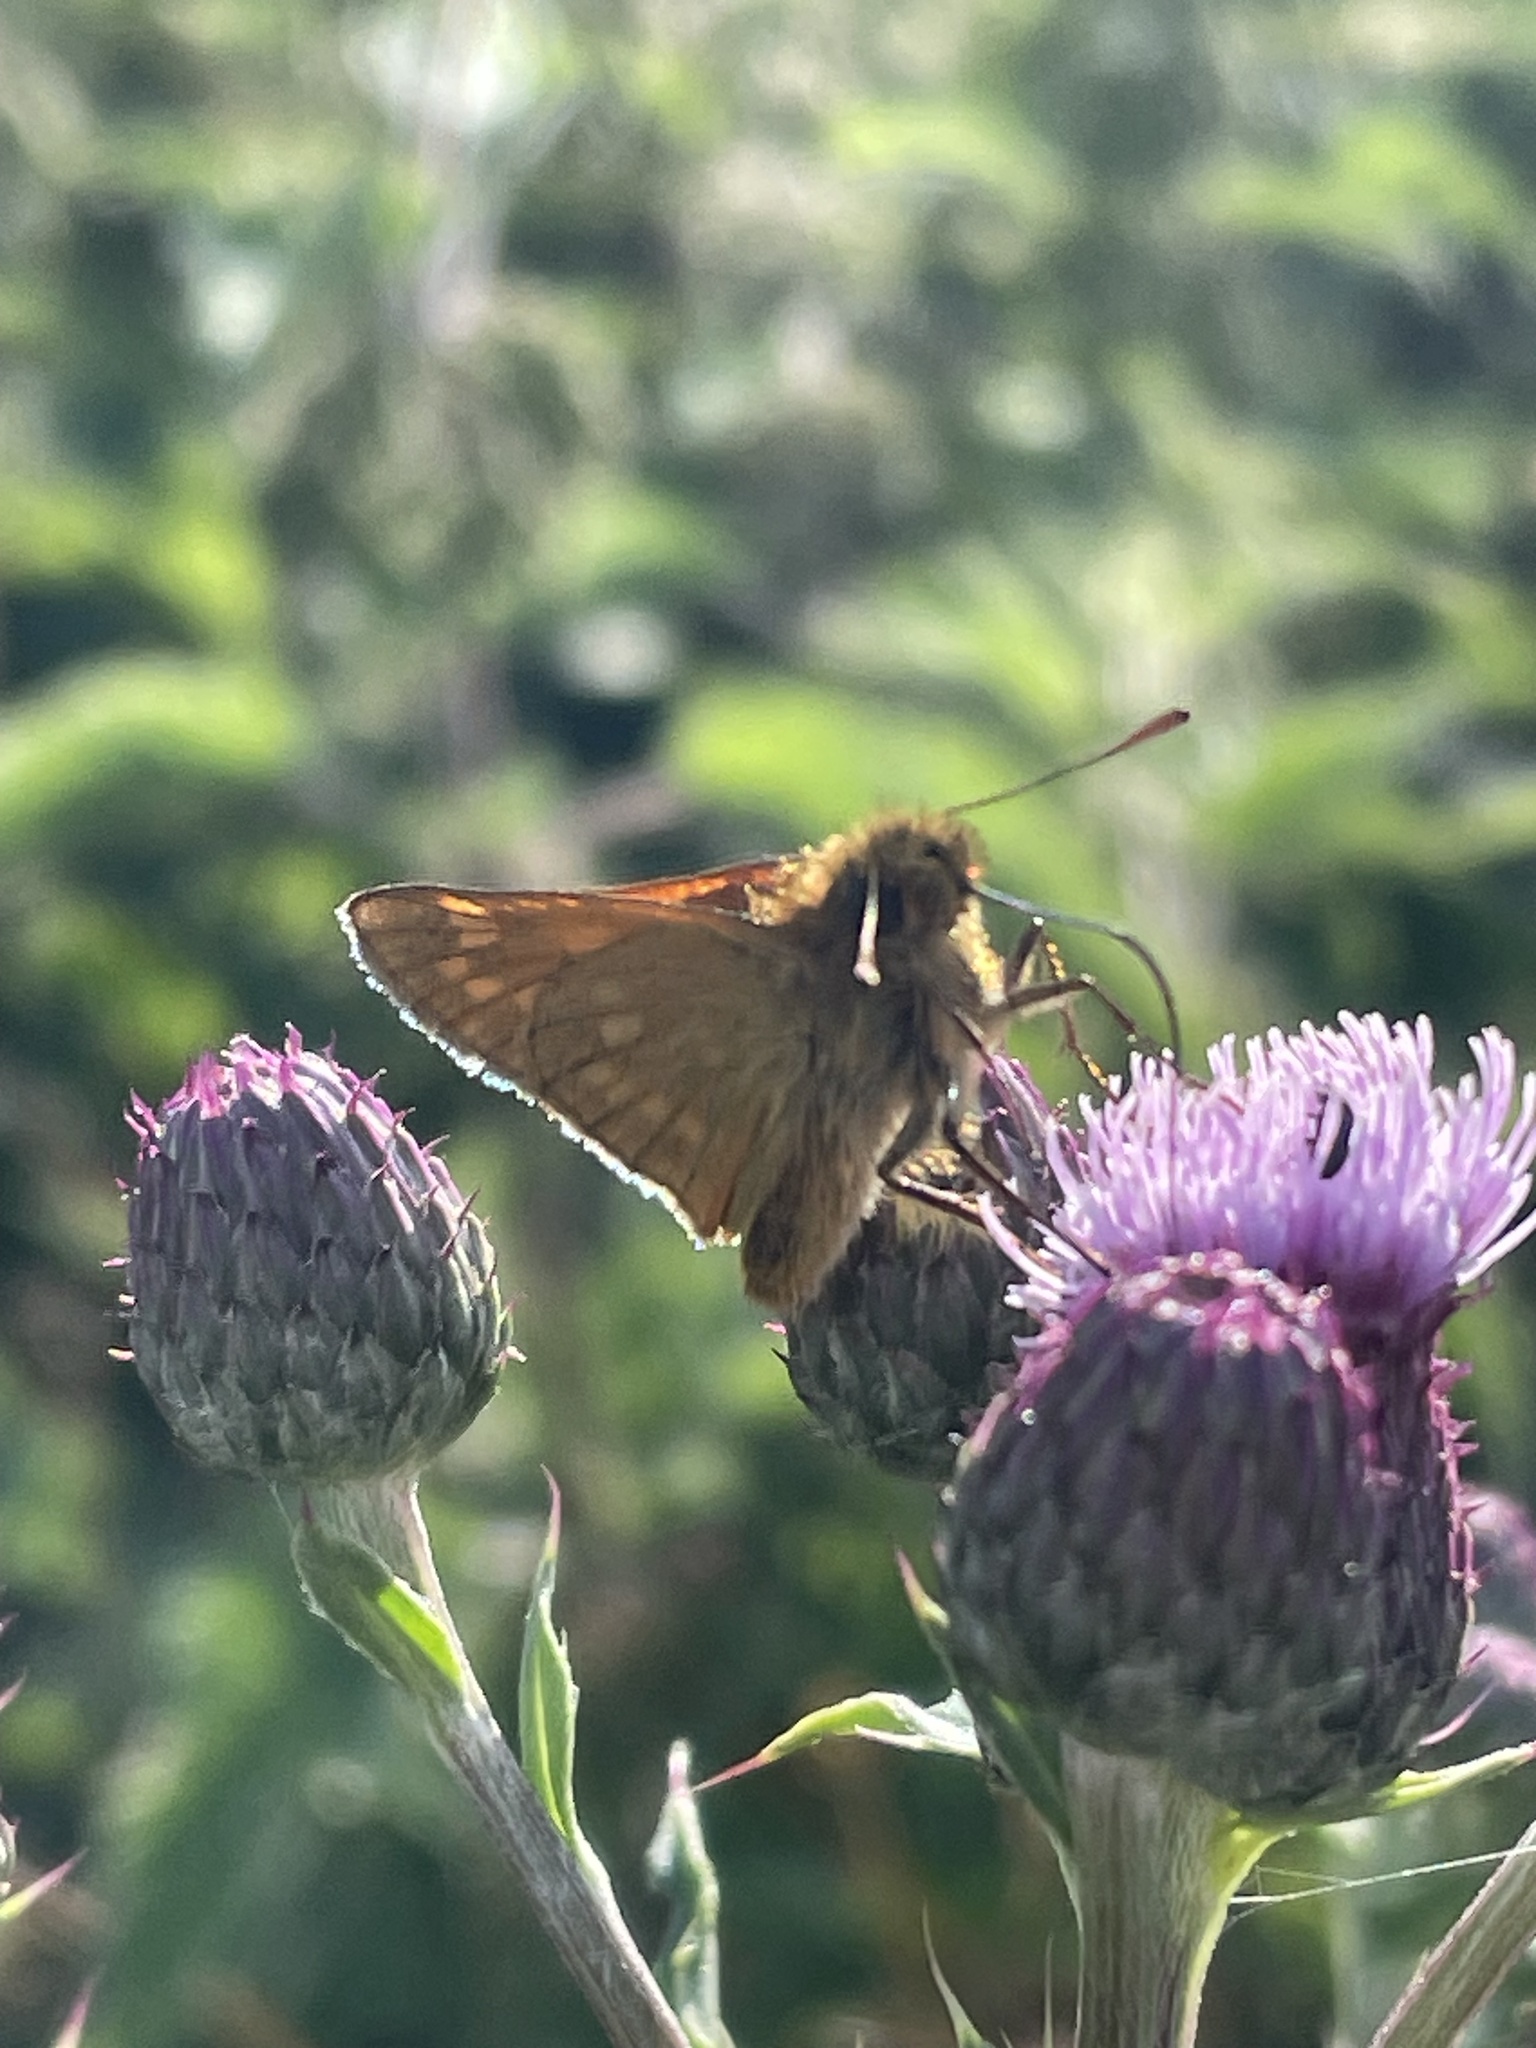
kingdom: Animalia
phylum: Arthropoda
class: Insecta
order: Lepidoptera
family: Hesperiidae
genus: Ochlodes
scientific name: Ochlodes venata
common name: Large skipper
